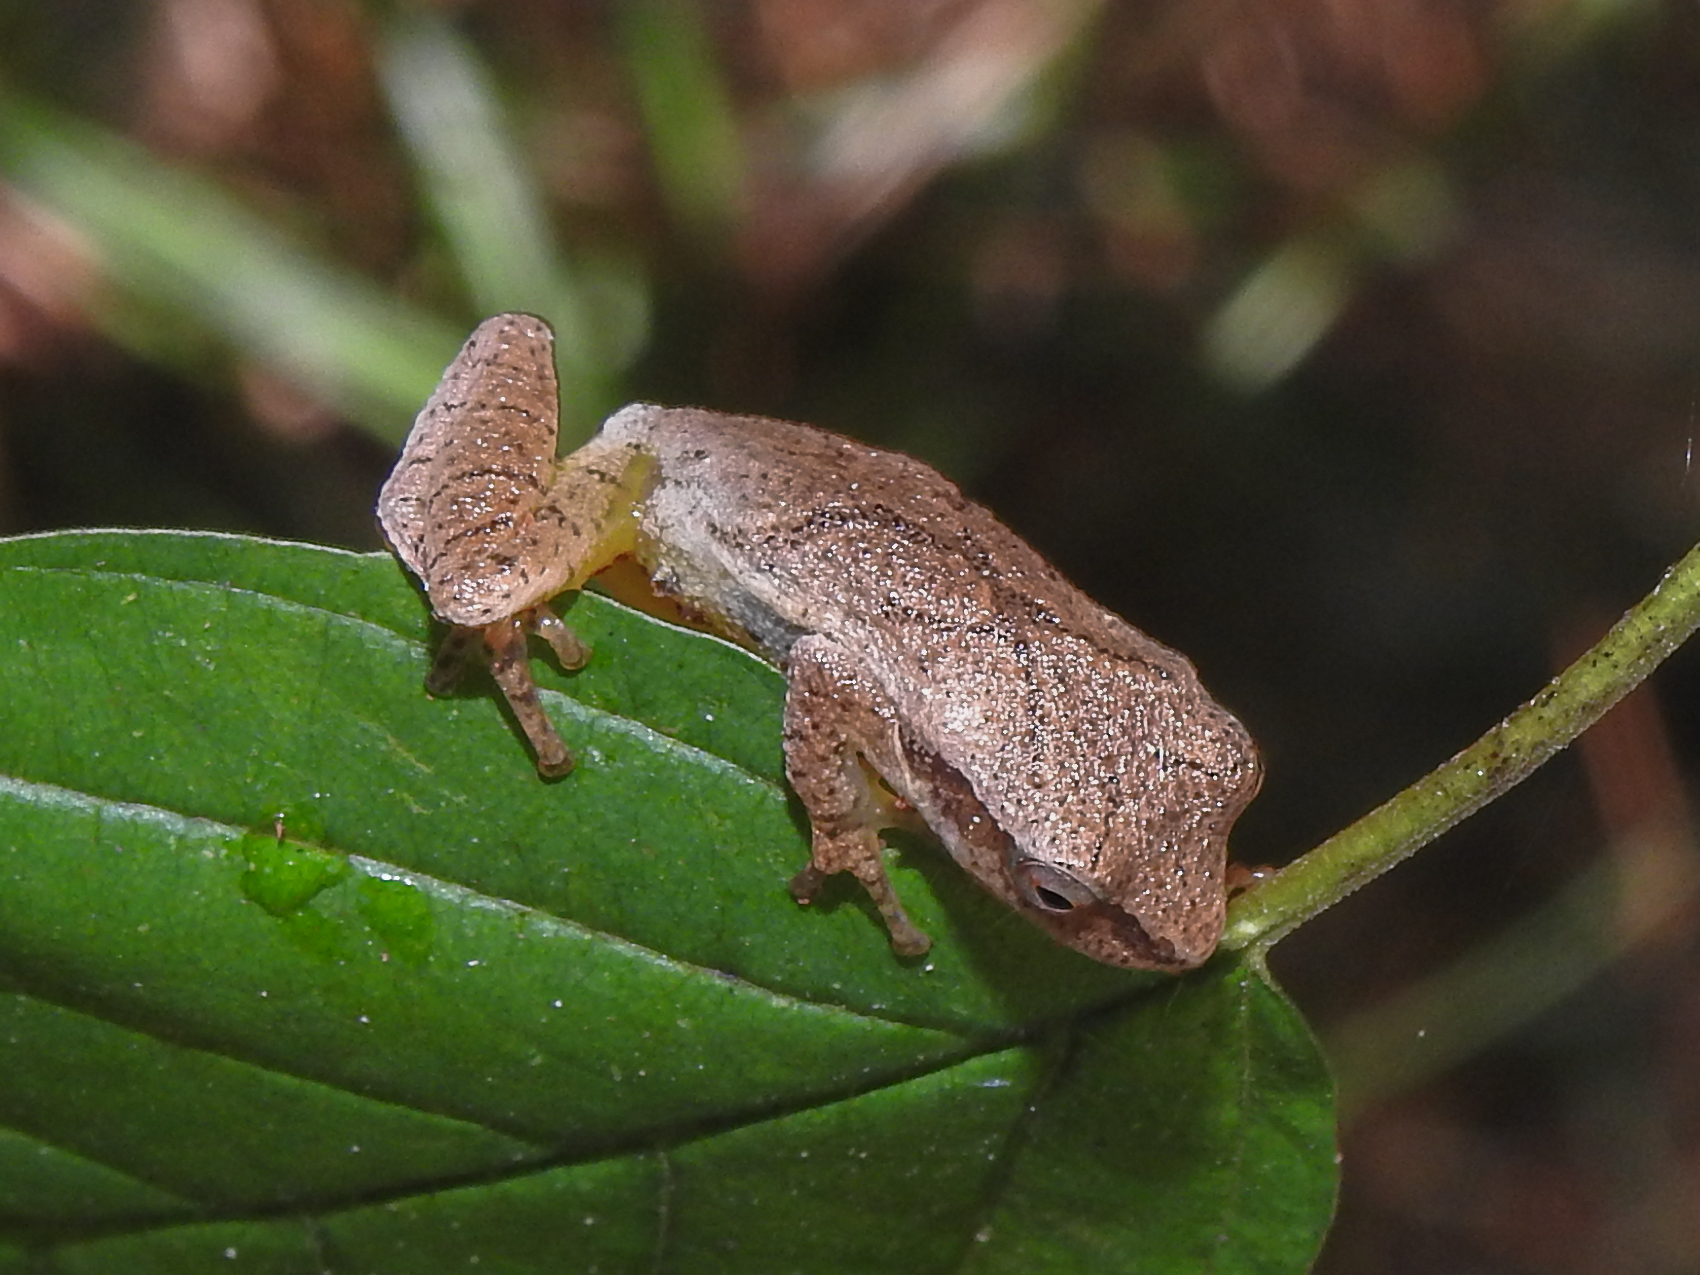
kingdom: Animalia
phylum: Chordata
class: Amphibia
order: Anura
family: Hylidae
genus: Pseudacris
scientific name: Pseudacris crucifer
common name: Spring peeper
